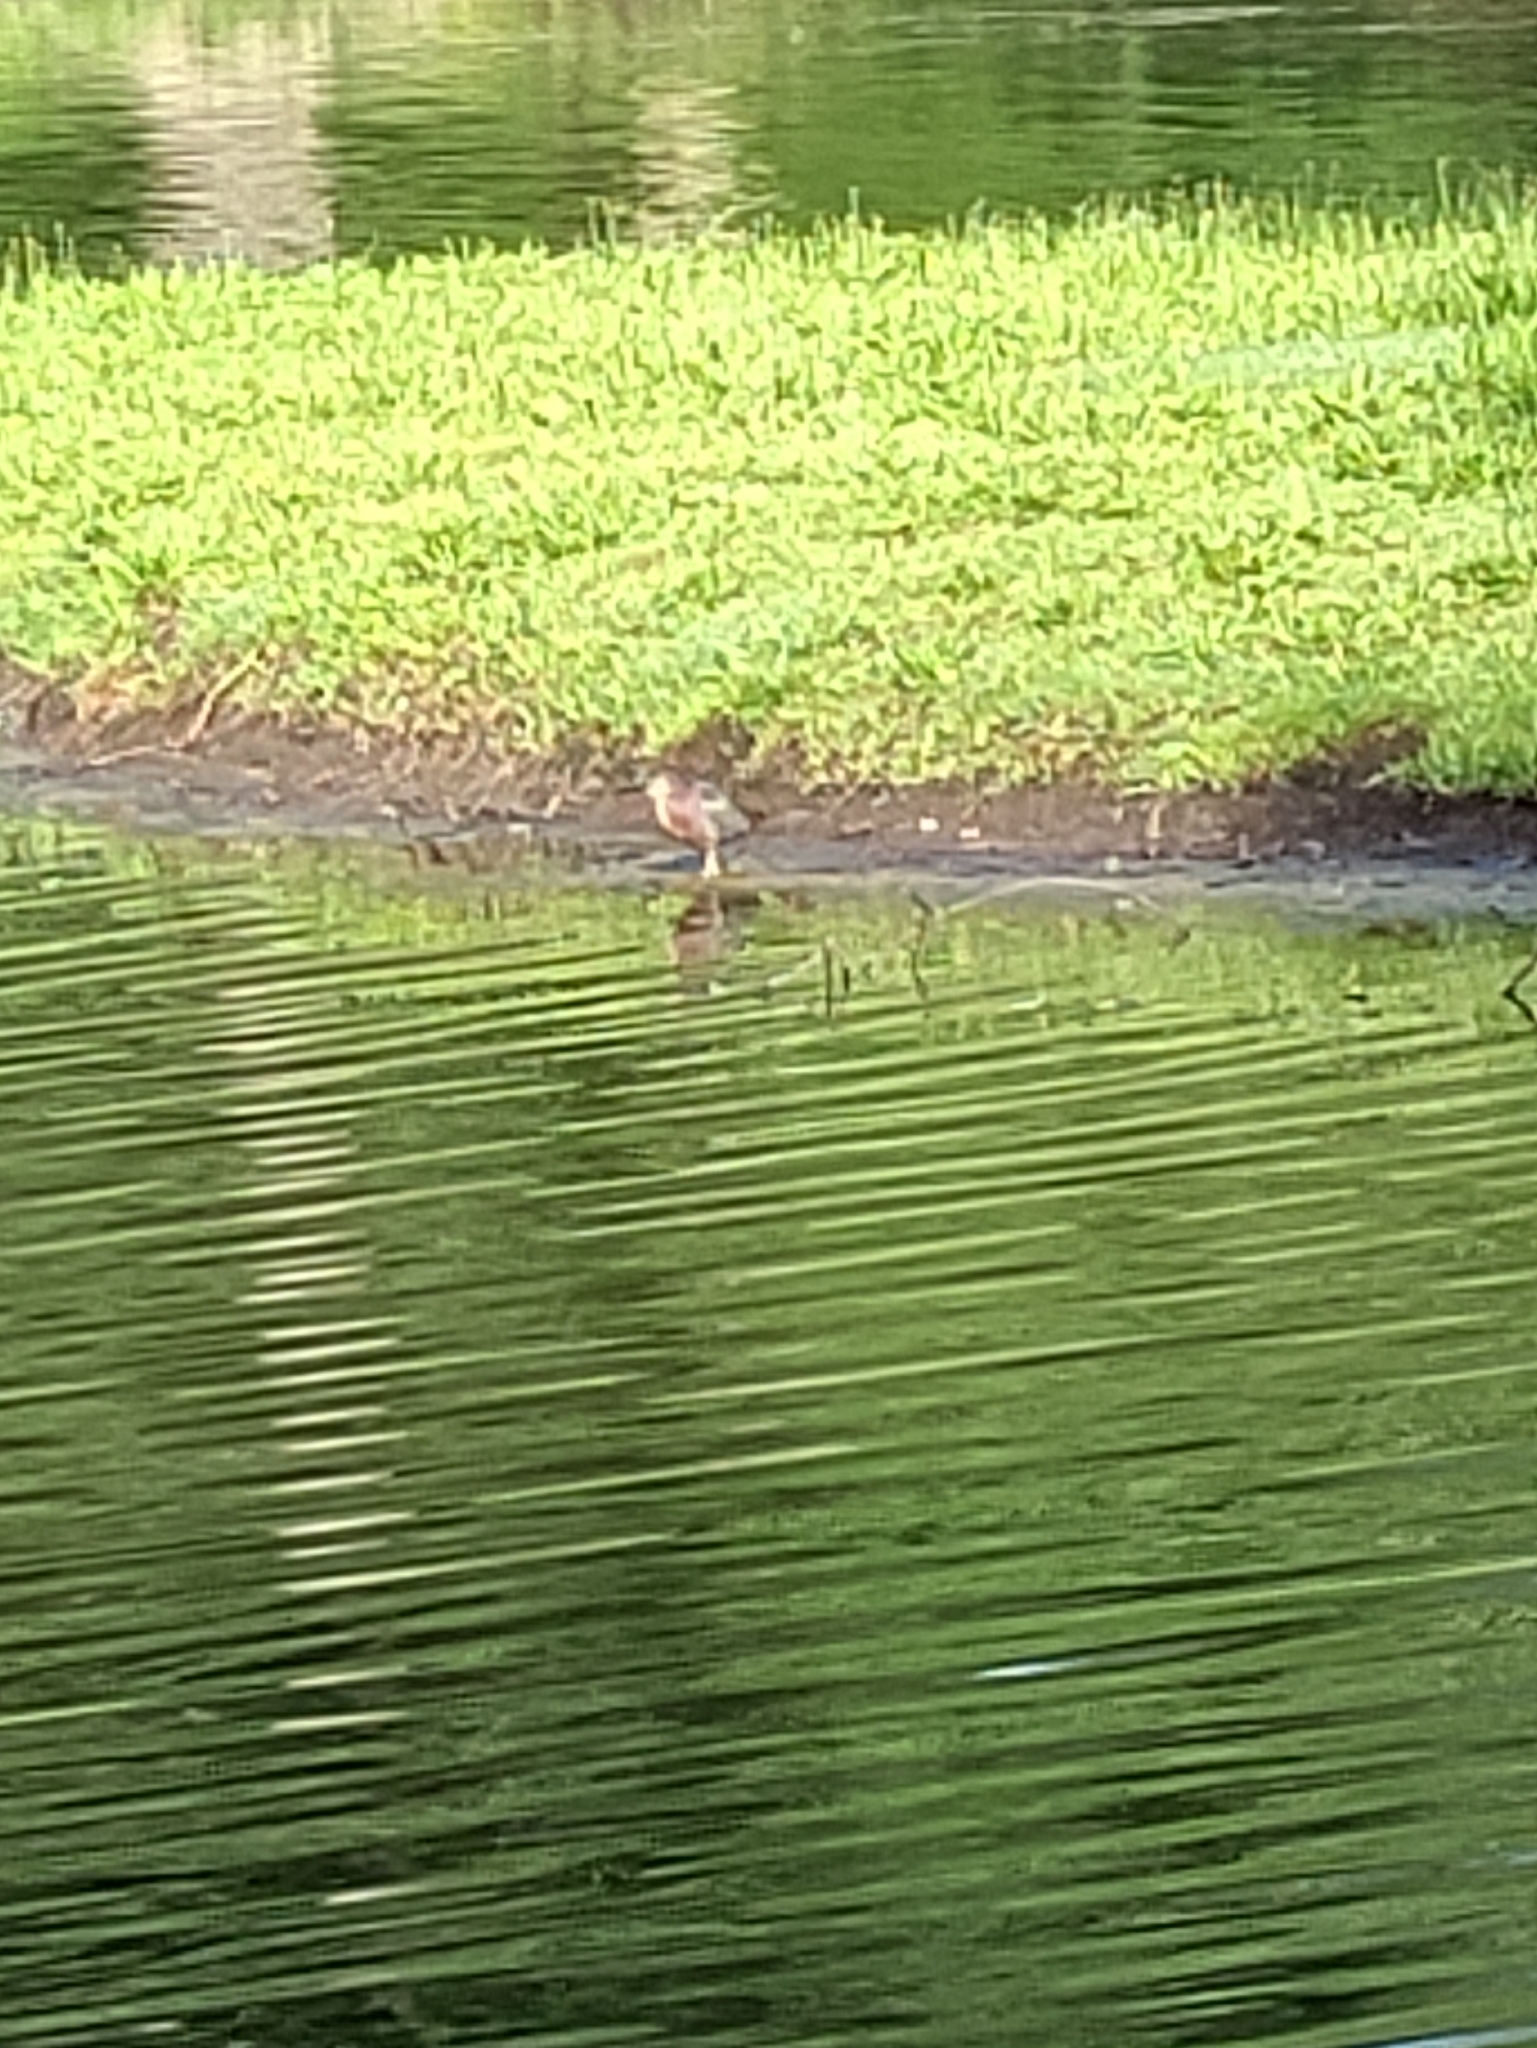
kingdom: Animalia
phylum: Chordata
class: Aves
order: Pelecaniformes
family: Ardeidae
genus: Butorides
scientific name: Butorides virescens
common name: Green heron
